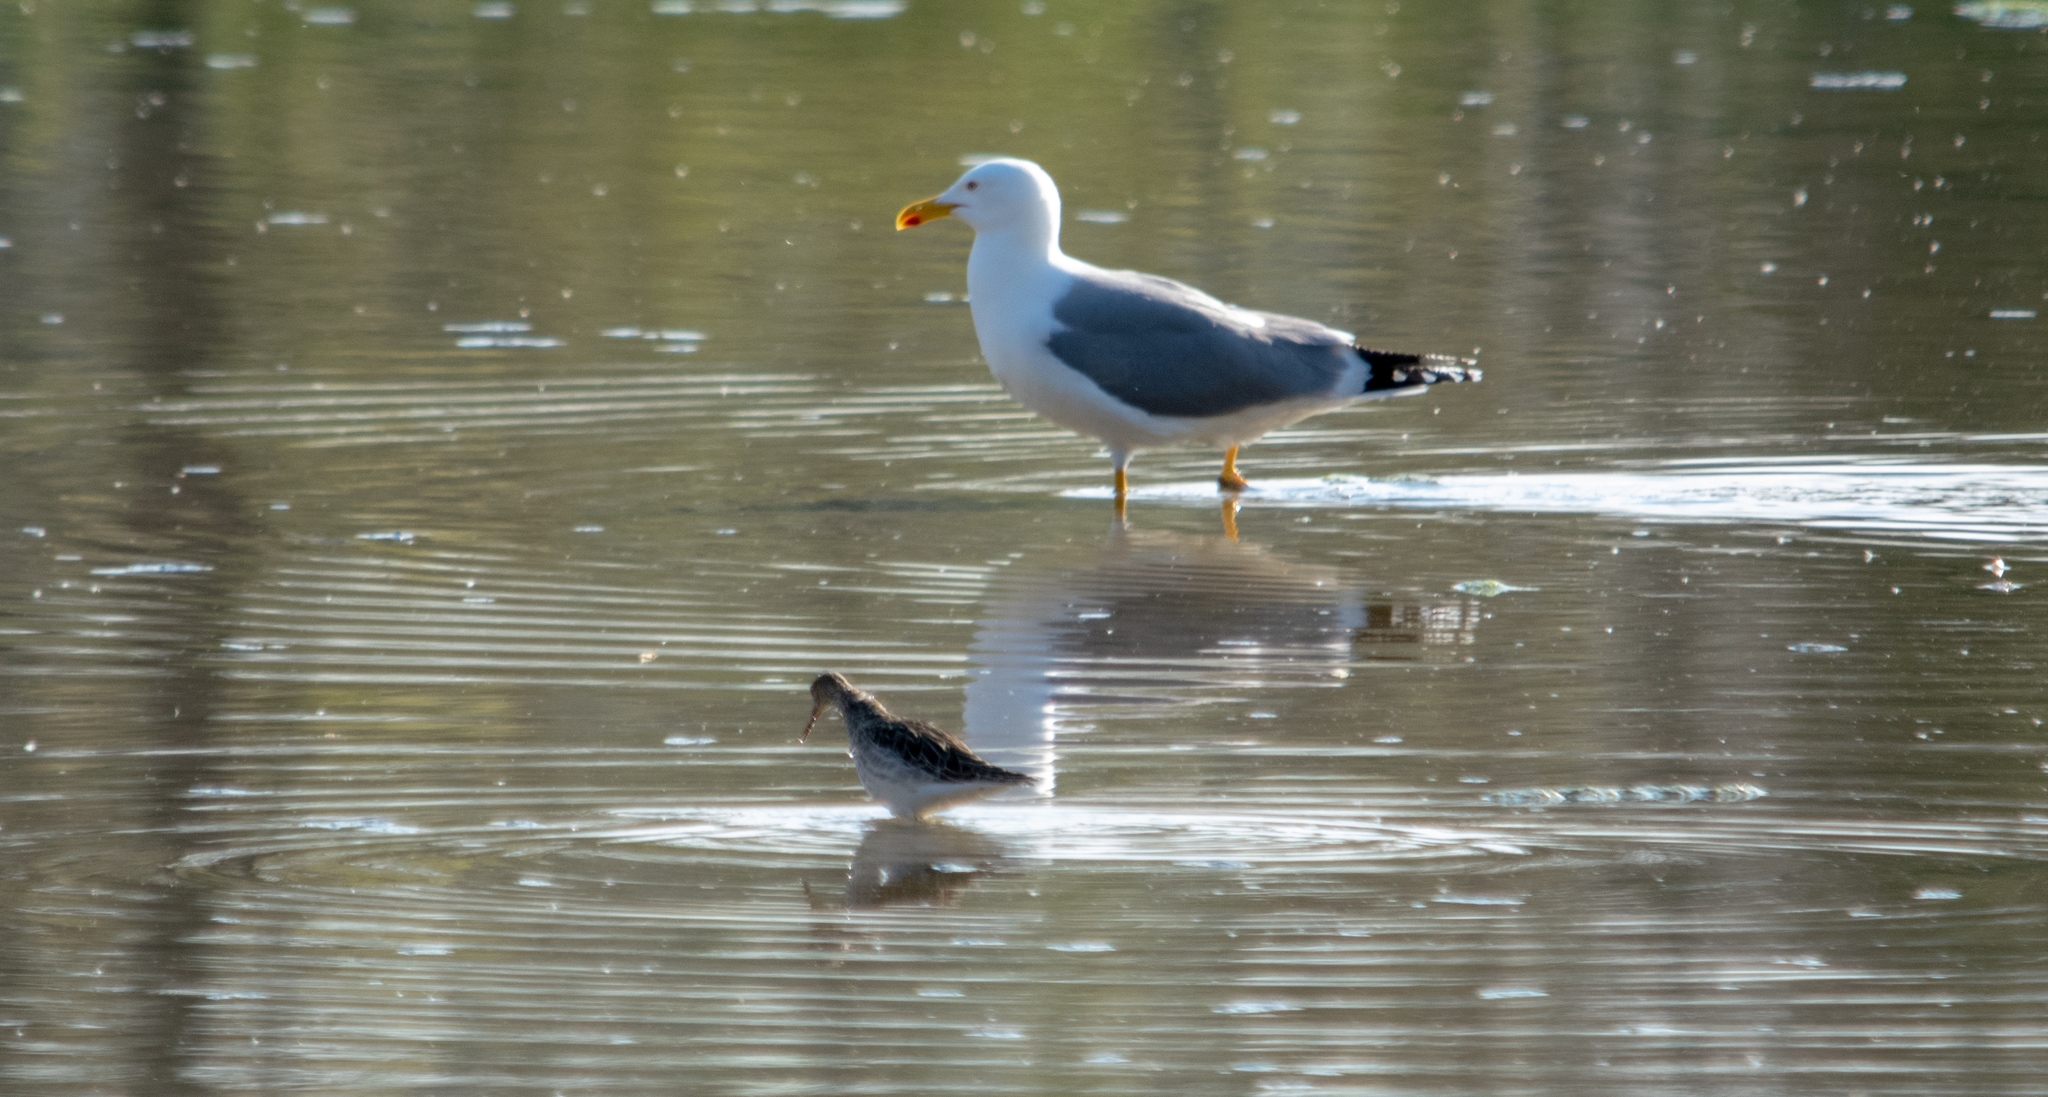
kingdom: Animalia
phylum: Chordata
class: Aves
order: Charadriiformes
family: Laridae
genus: Larus
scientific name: Larus michahellis
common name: Yellow-legged gull
